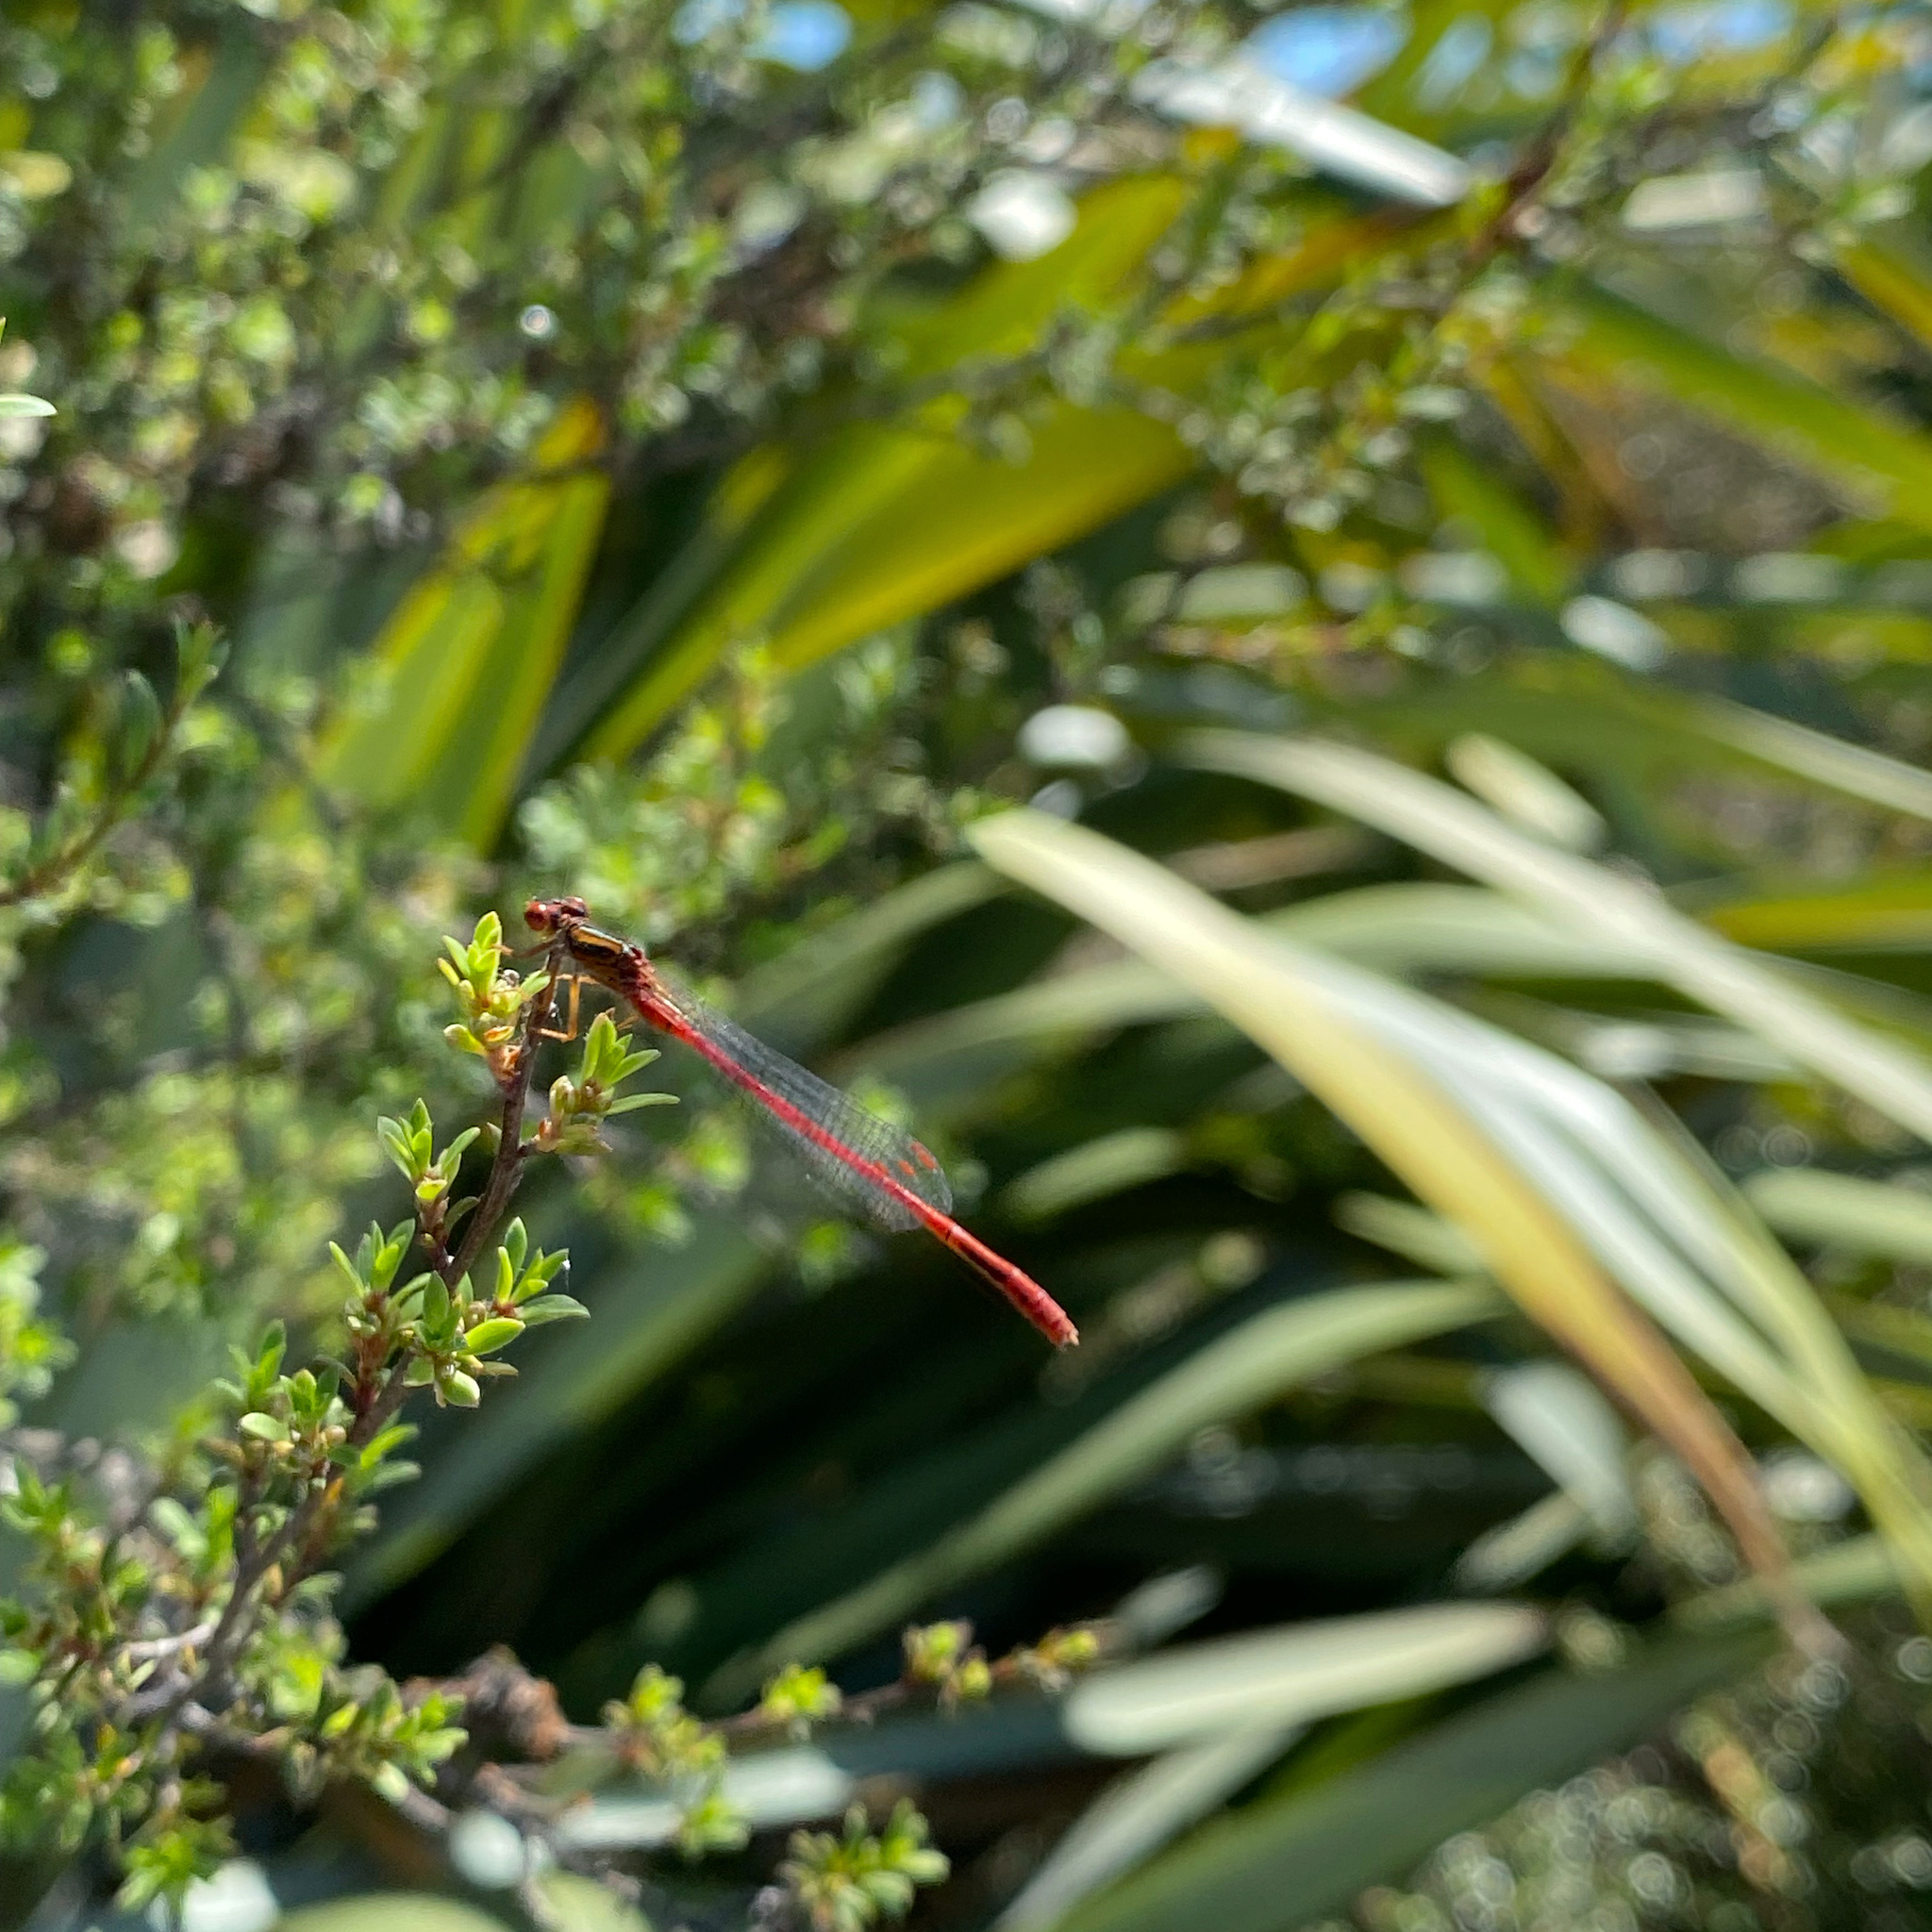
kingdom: Animalia
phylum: Arthropoda
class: Insecta
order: Odonata
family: Coenagrionidae
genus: Xanthocnemis
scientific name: Xanthocnemis zealandica
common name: Common redcoat damselfly
